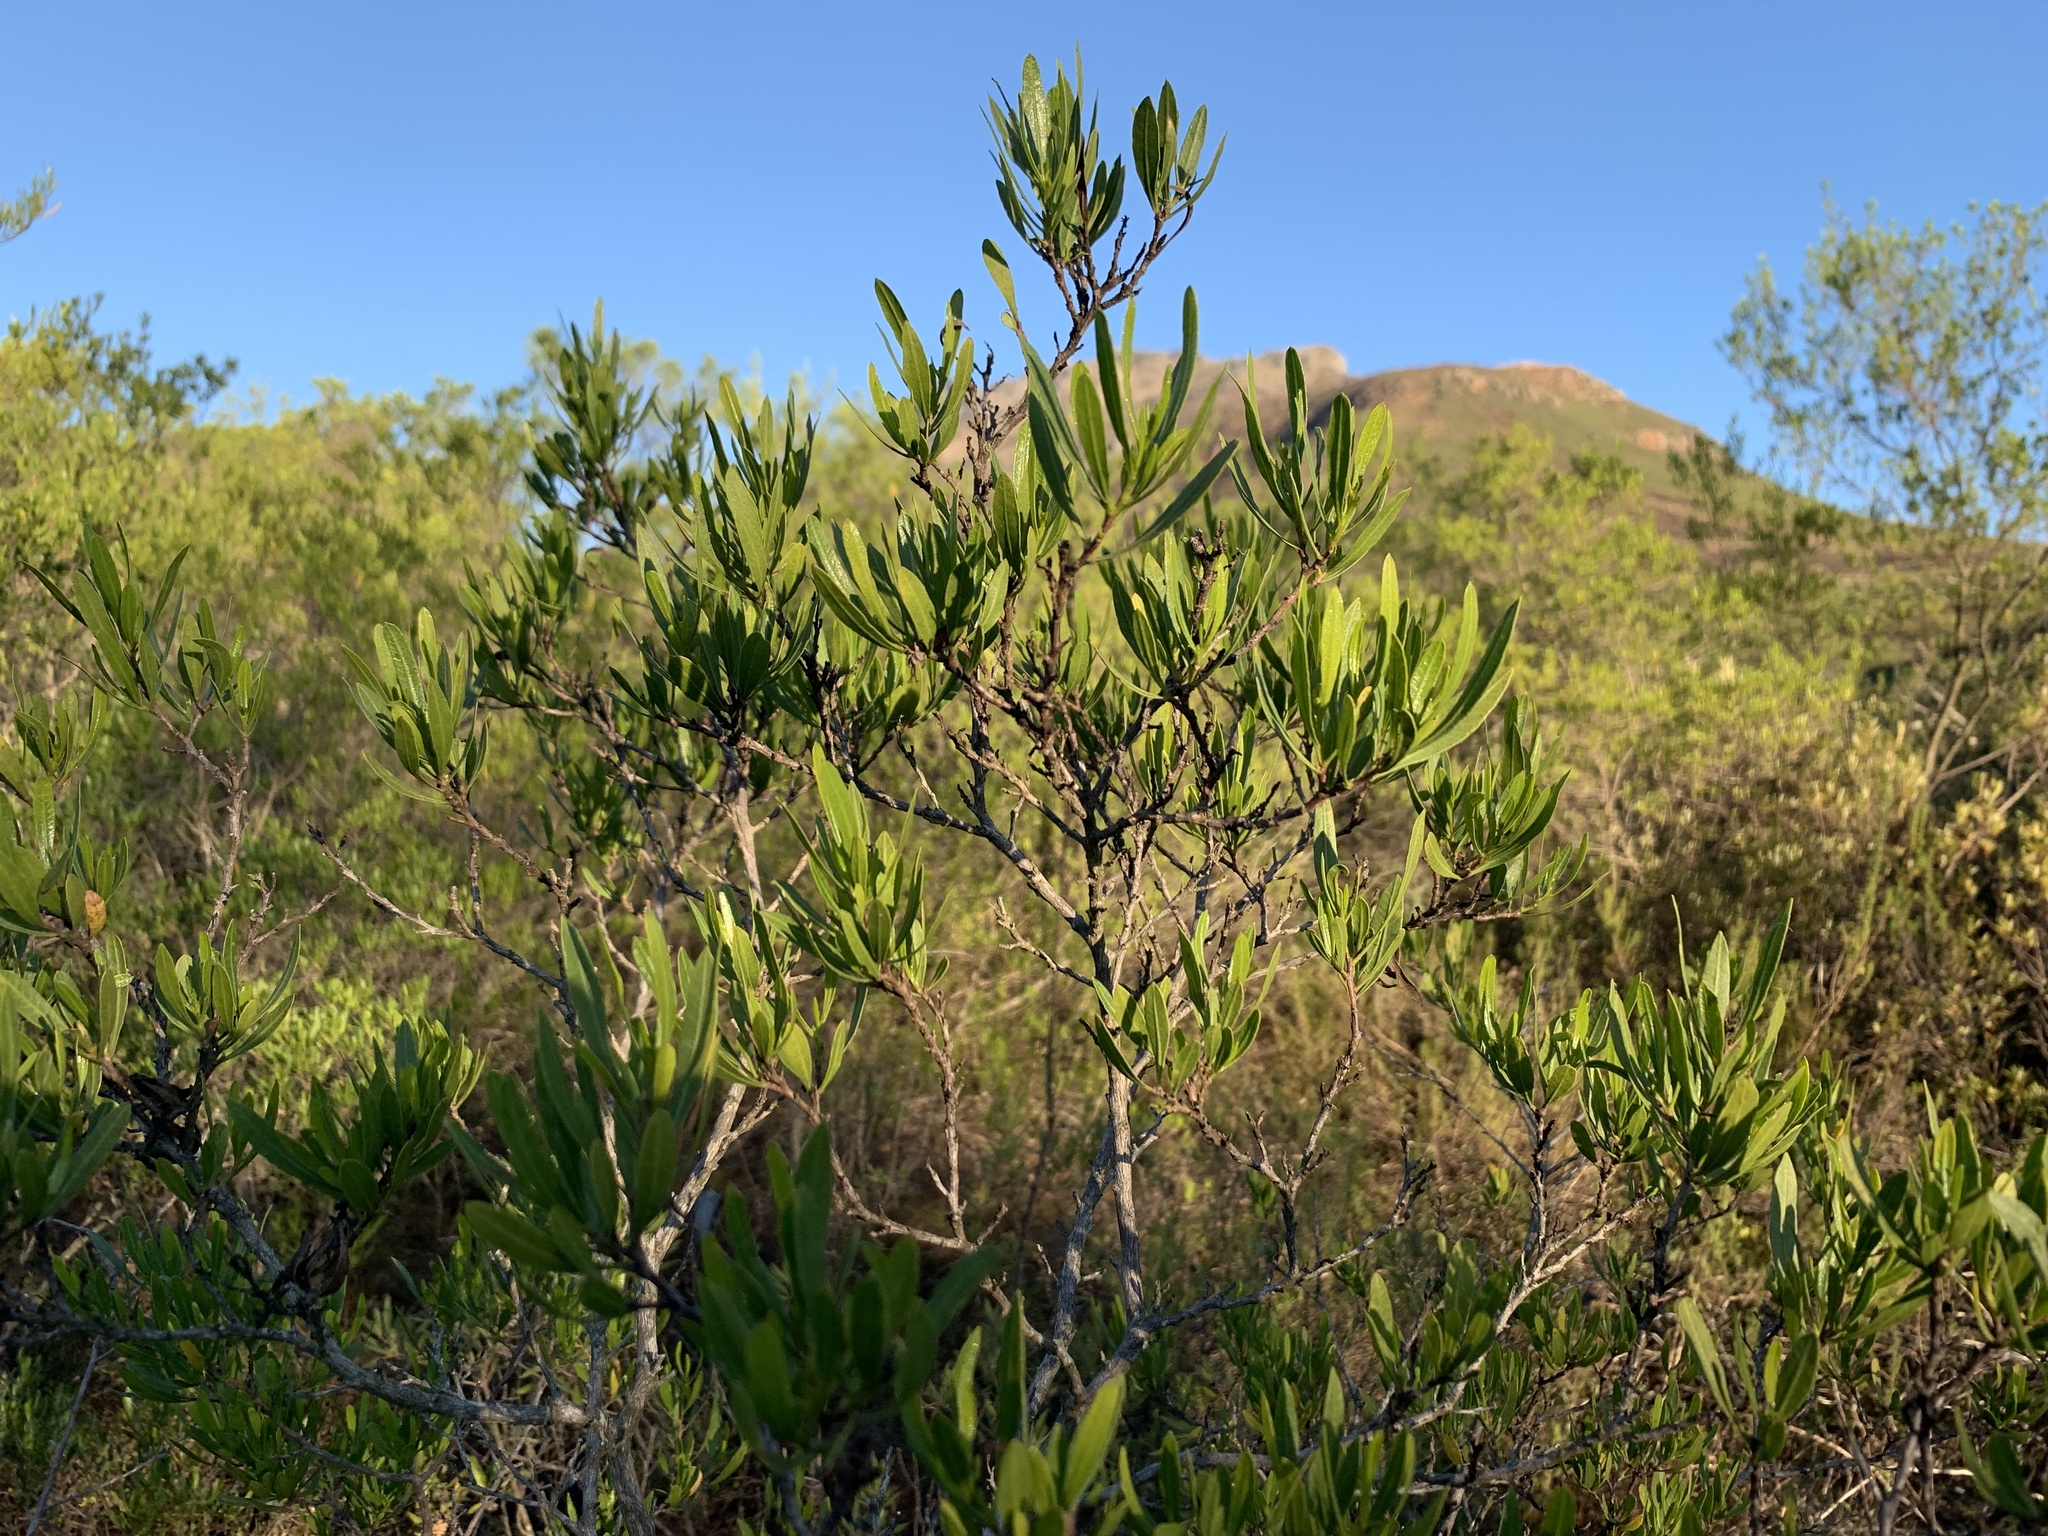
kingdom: Plantae
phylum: Tracheophyta
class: Magnoliopsida
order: Sapindales
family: Sapindaceae
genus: Dodonaea
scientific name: Dodonaea viscosa
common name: Hopbush
